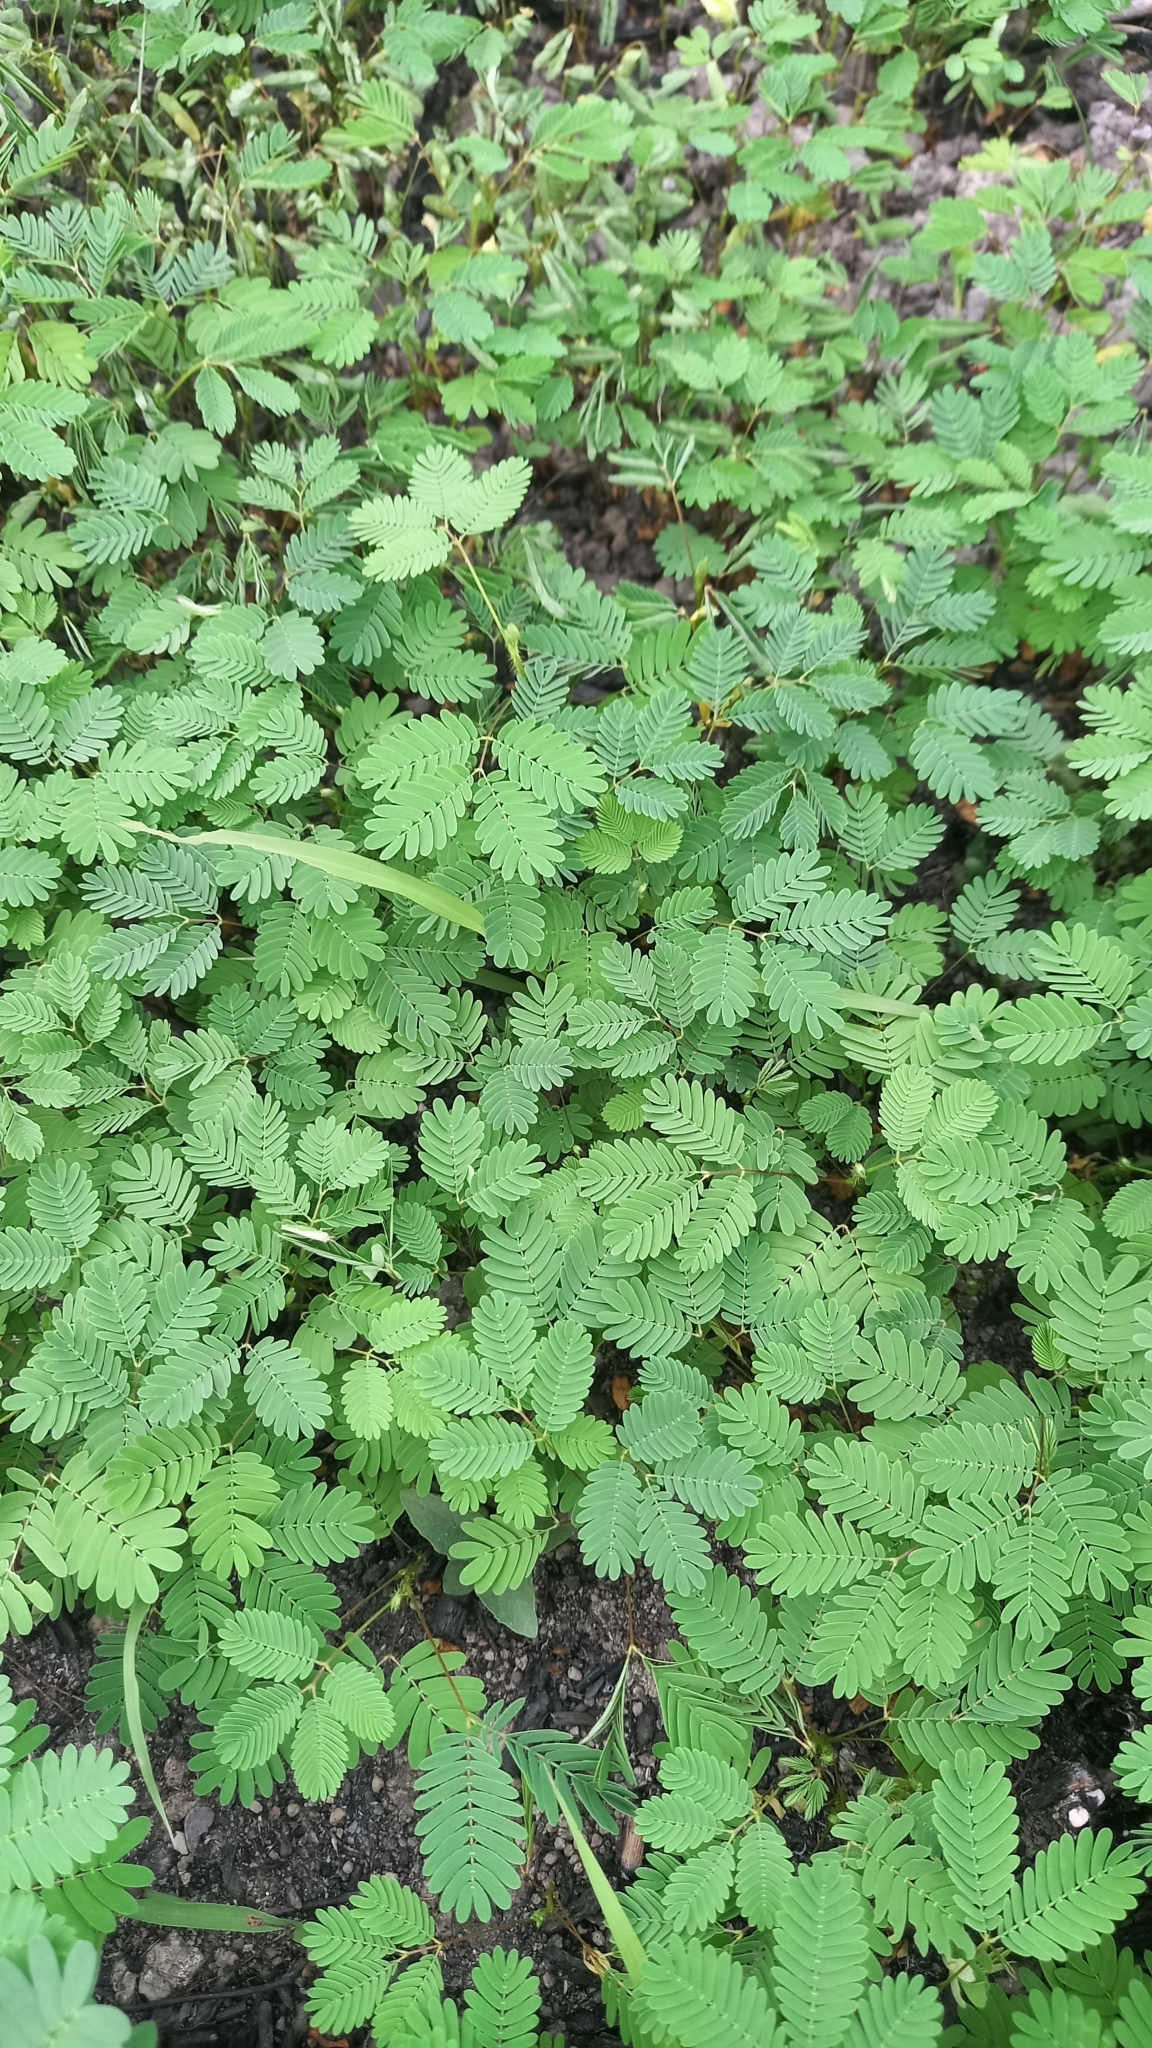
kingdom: Plantae
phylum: Tracheophyta
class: Magnoliopsida
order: Fabales
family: Fabaceae
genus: Mimosa
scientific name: Mimosa pudica
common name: Sensitive plant
